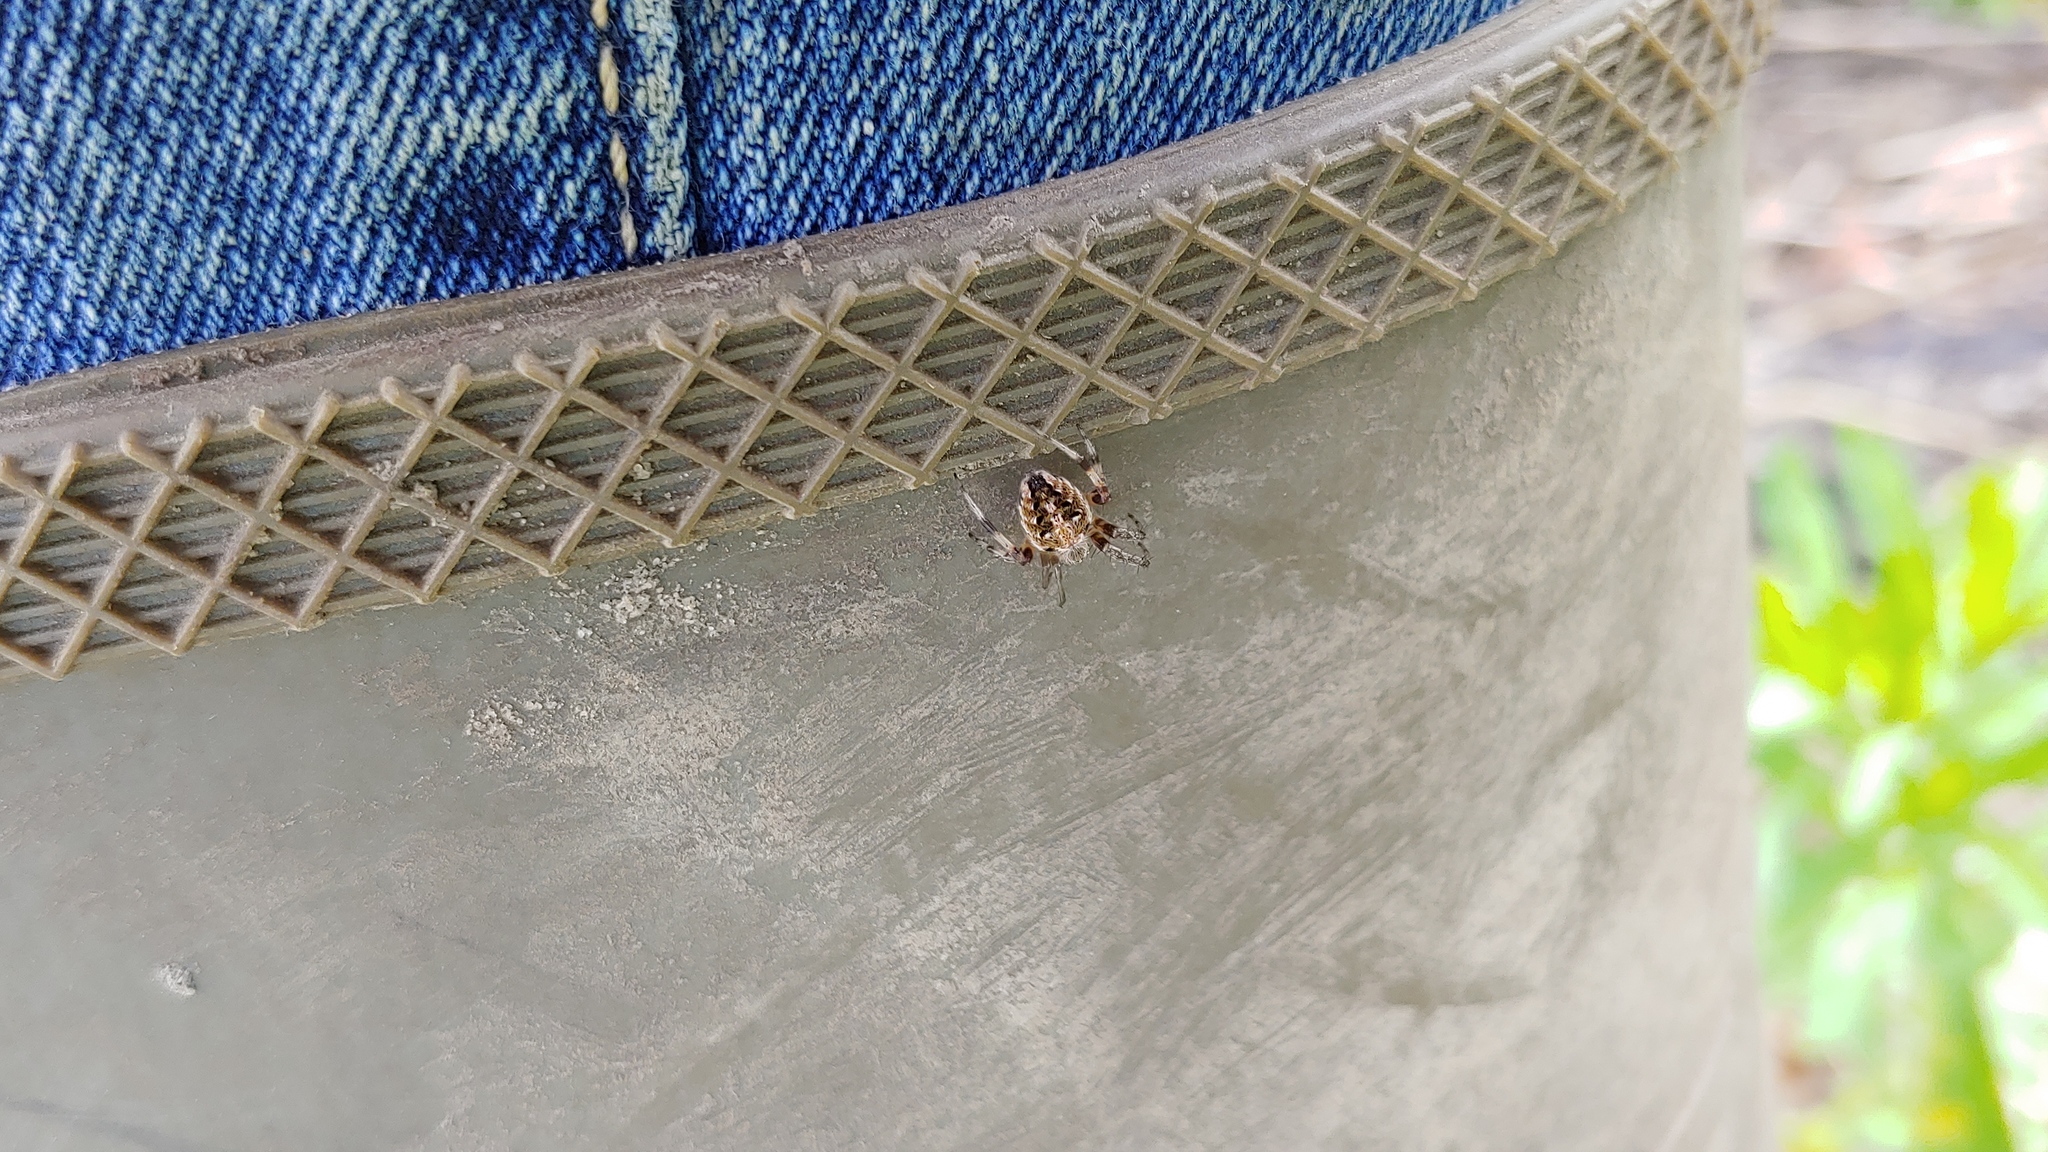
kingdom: Animalia
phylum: Arthropoda
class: Arachnida
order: Araneae
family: Araneidae
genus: Neoscona
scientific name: Neoscona arabesca
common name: Orb weavers
